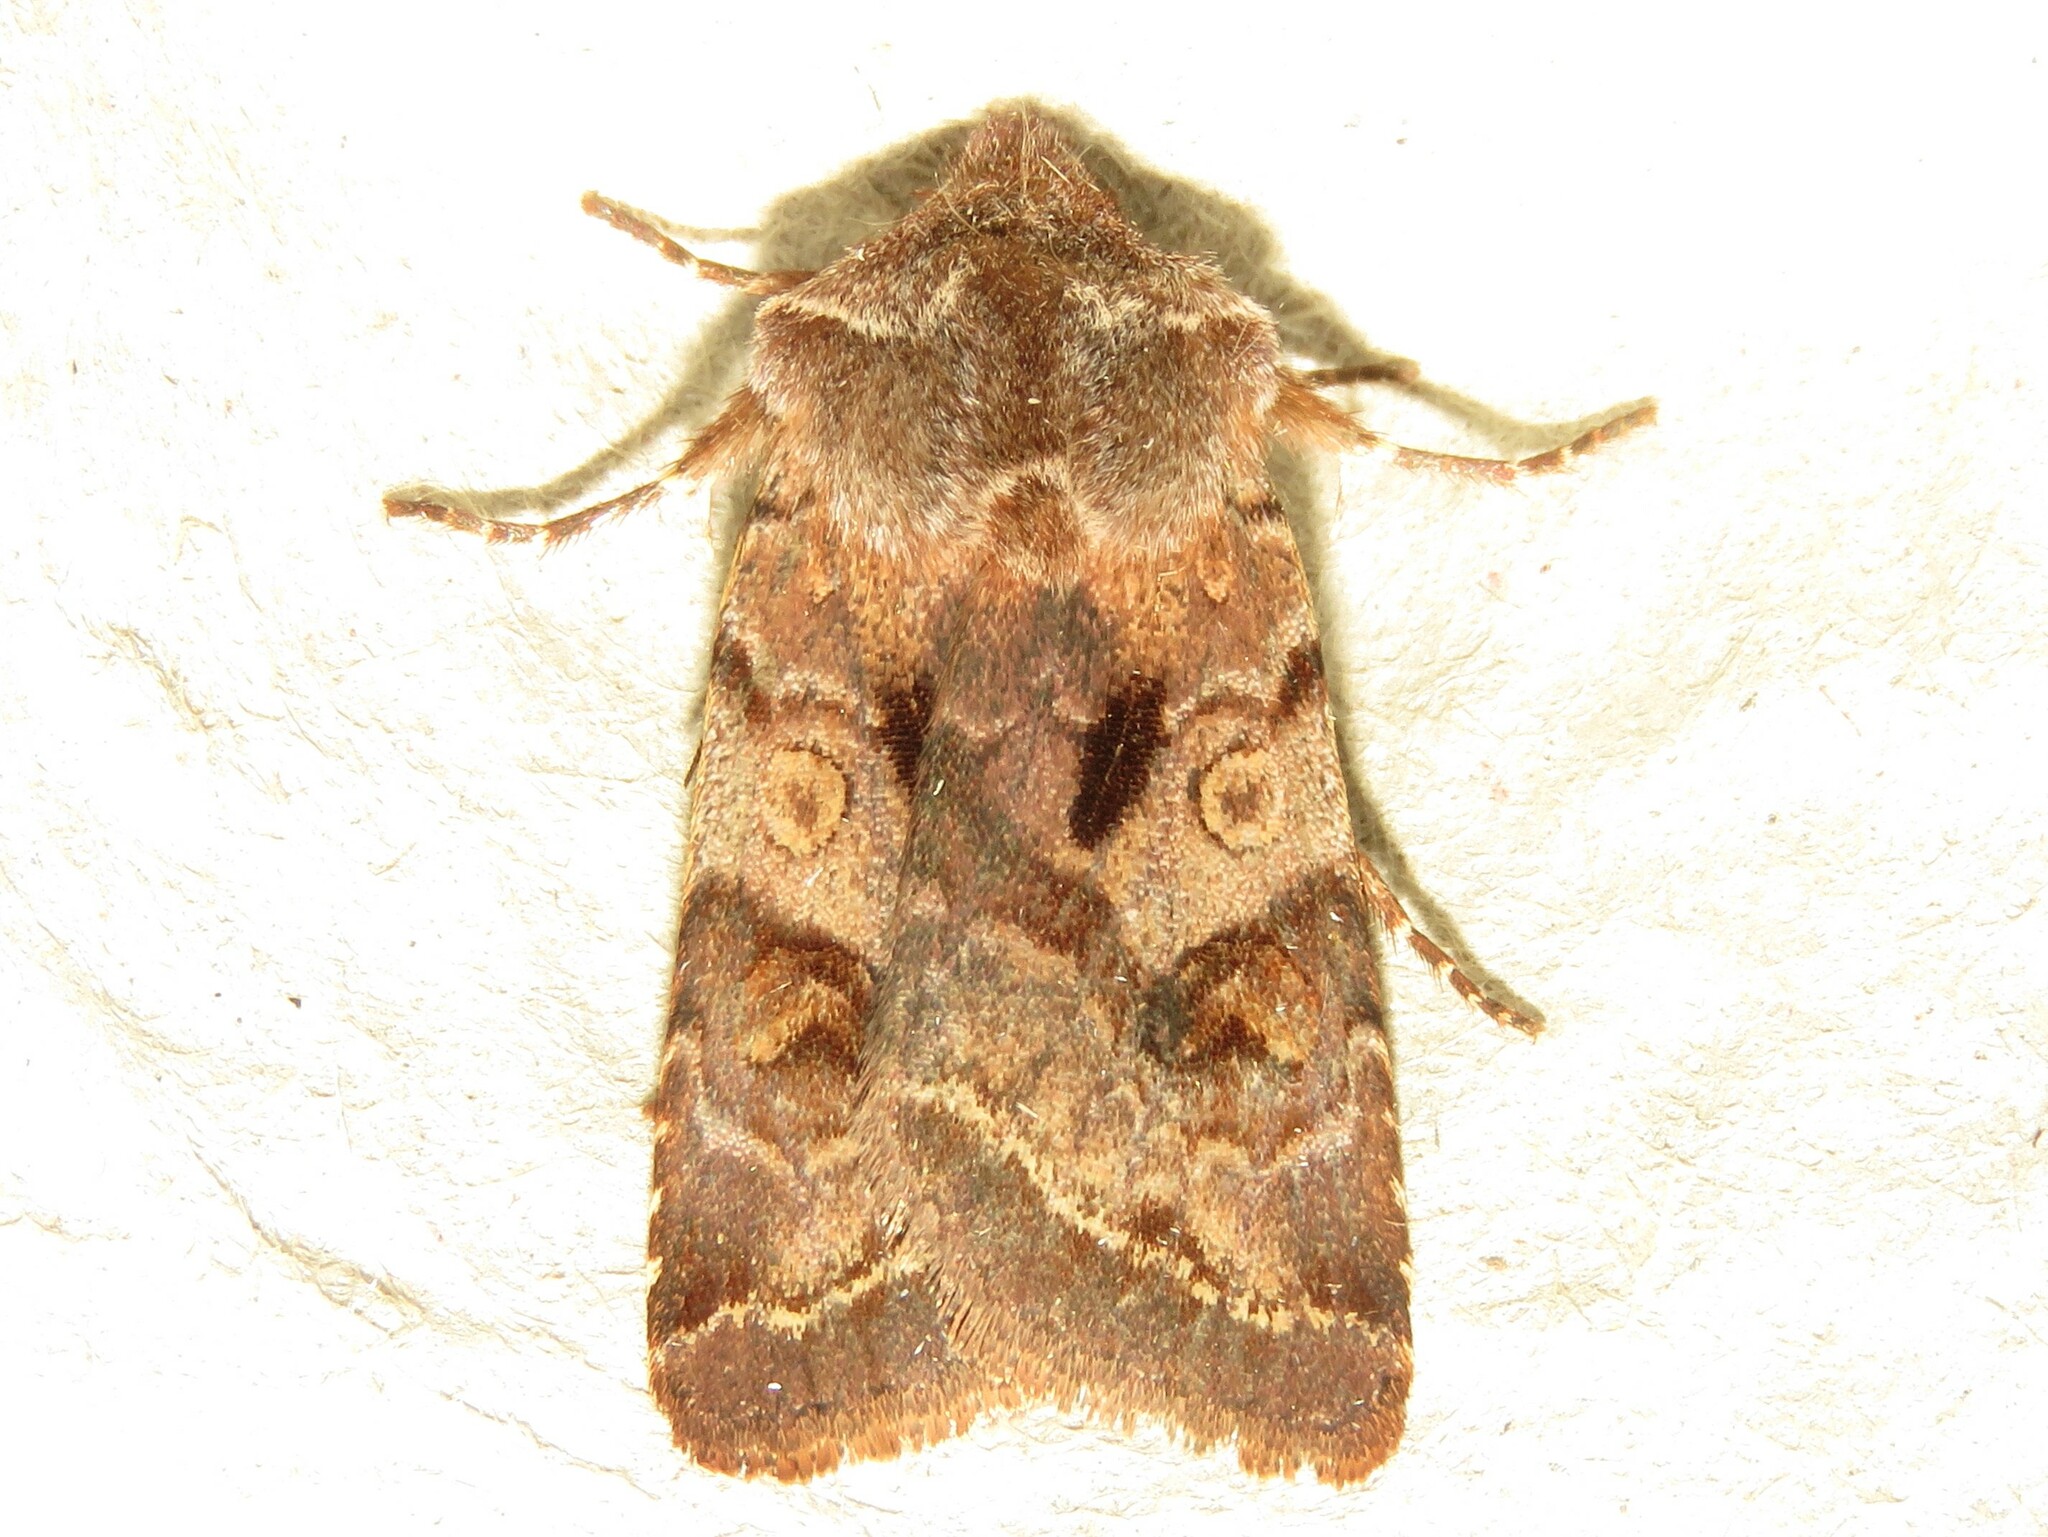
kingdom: Animalia
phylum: Arthropoda
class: Insecta
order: Lepidoptera
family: Noctuidae
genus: Cerastis
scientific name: Cerastis salicarum
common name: Willow dart
